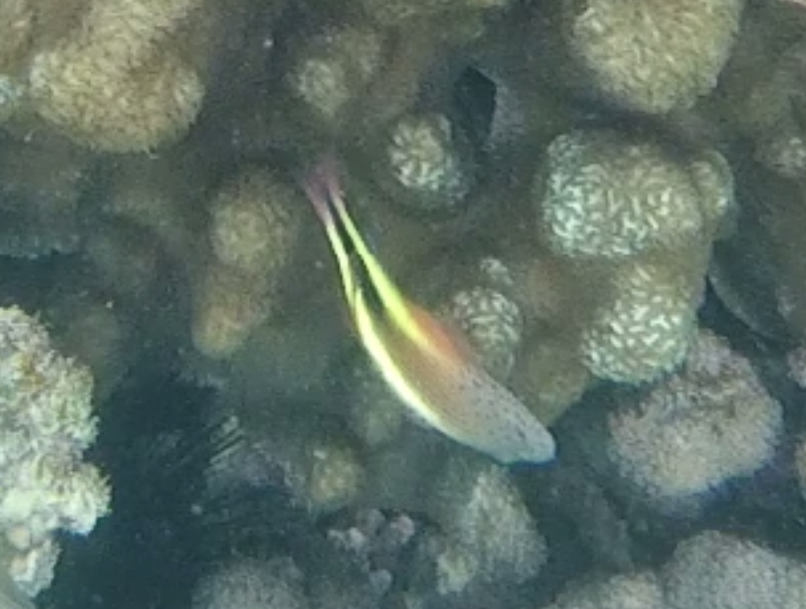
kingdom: Animalia
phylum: Chordata
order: Perciformes
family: Cirrhitidae
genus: Paracirrhites
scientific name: Paracirrhites forsteri
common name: Freckled hawkfish
